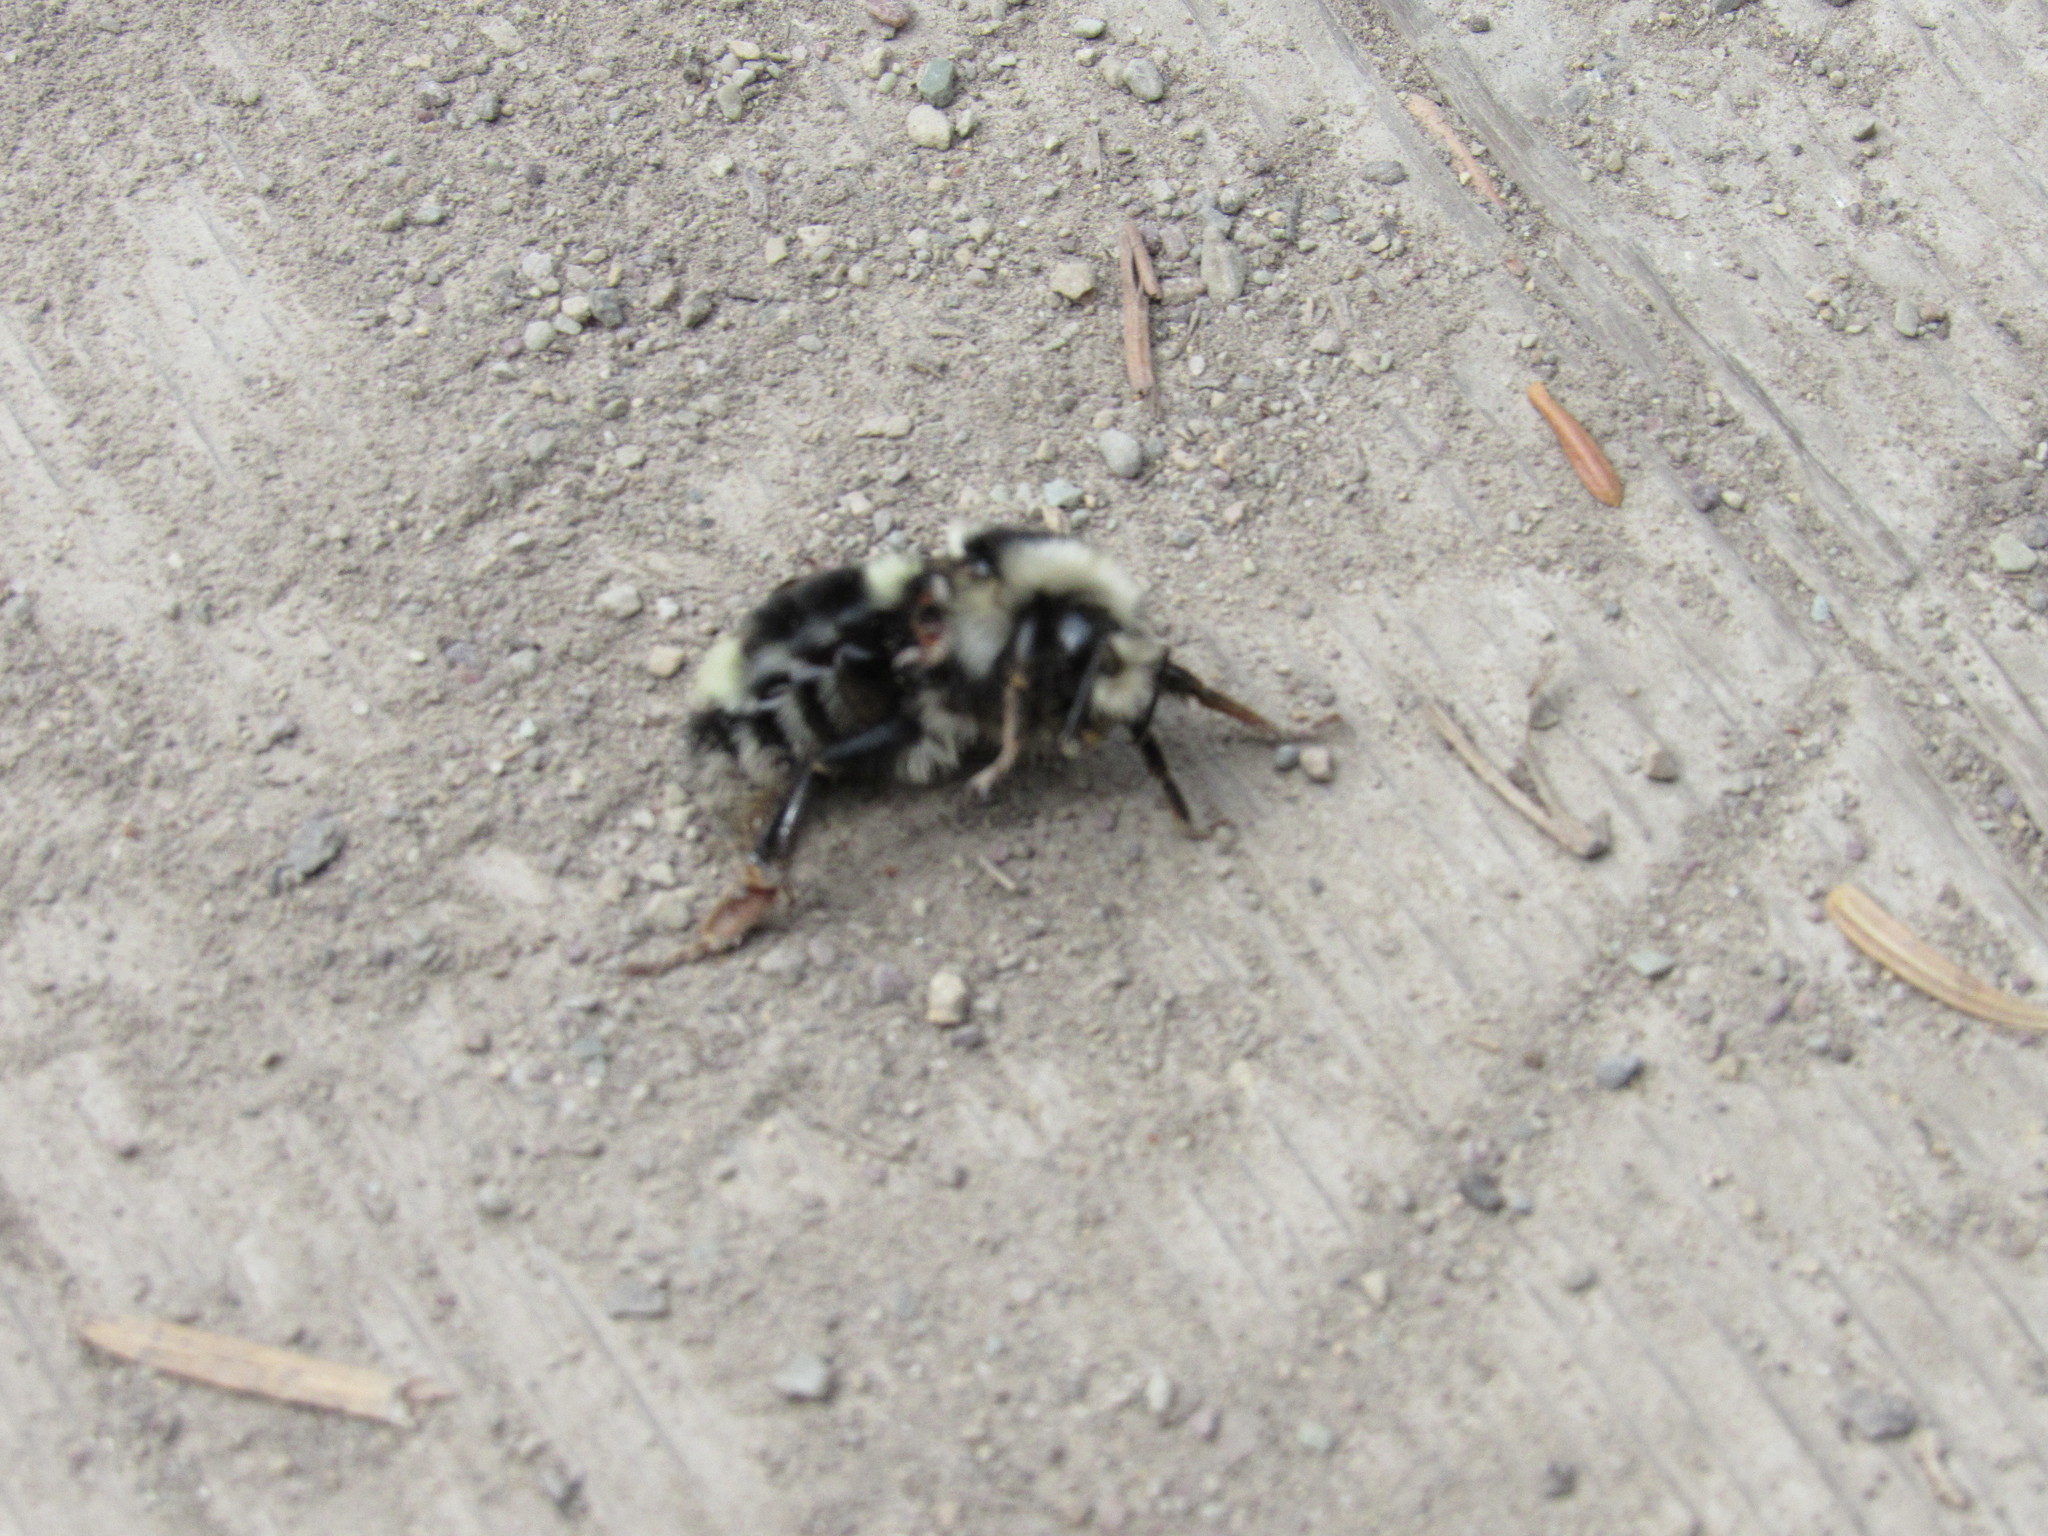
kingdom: Animalia
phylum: Arthropoda
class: Insecta
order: Hymenoptera
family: Apidae
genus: Bombus
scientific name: Bombus vancouverensis
